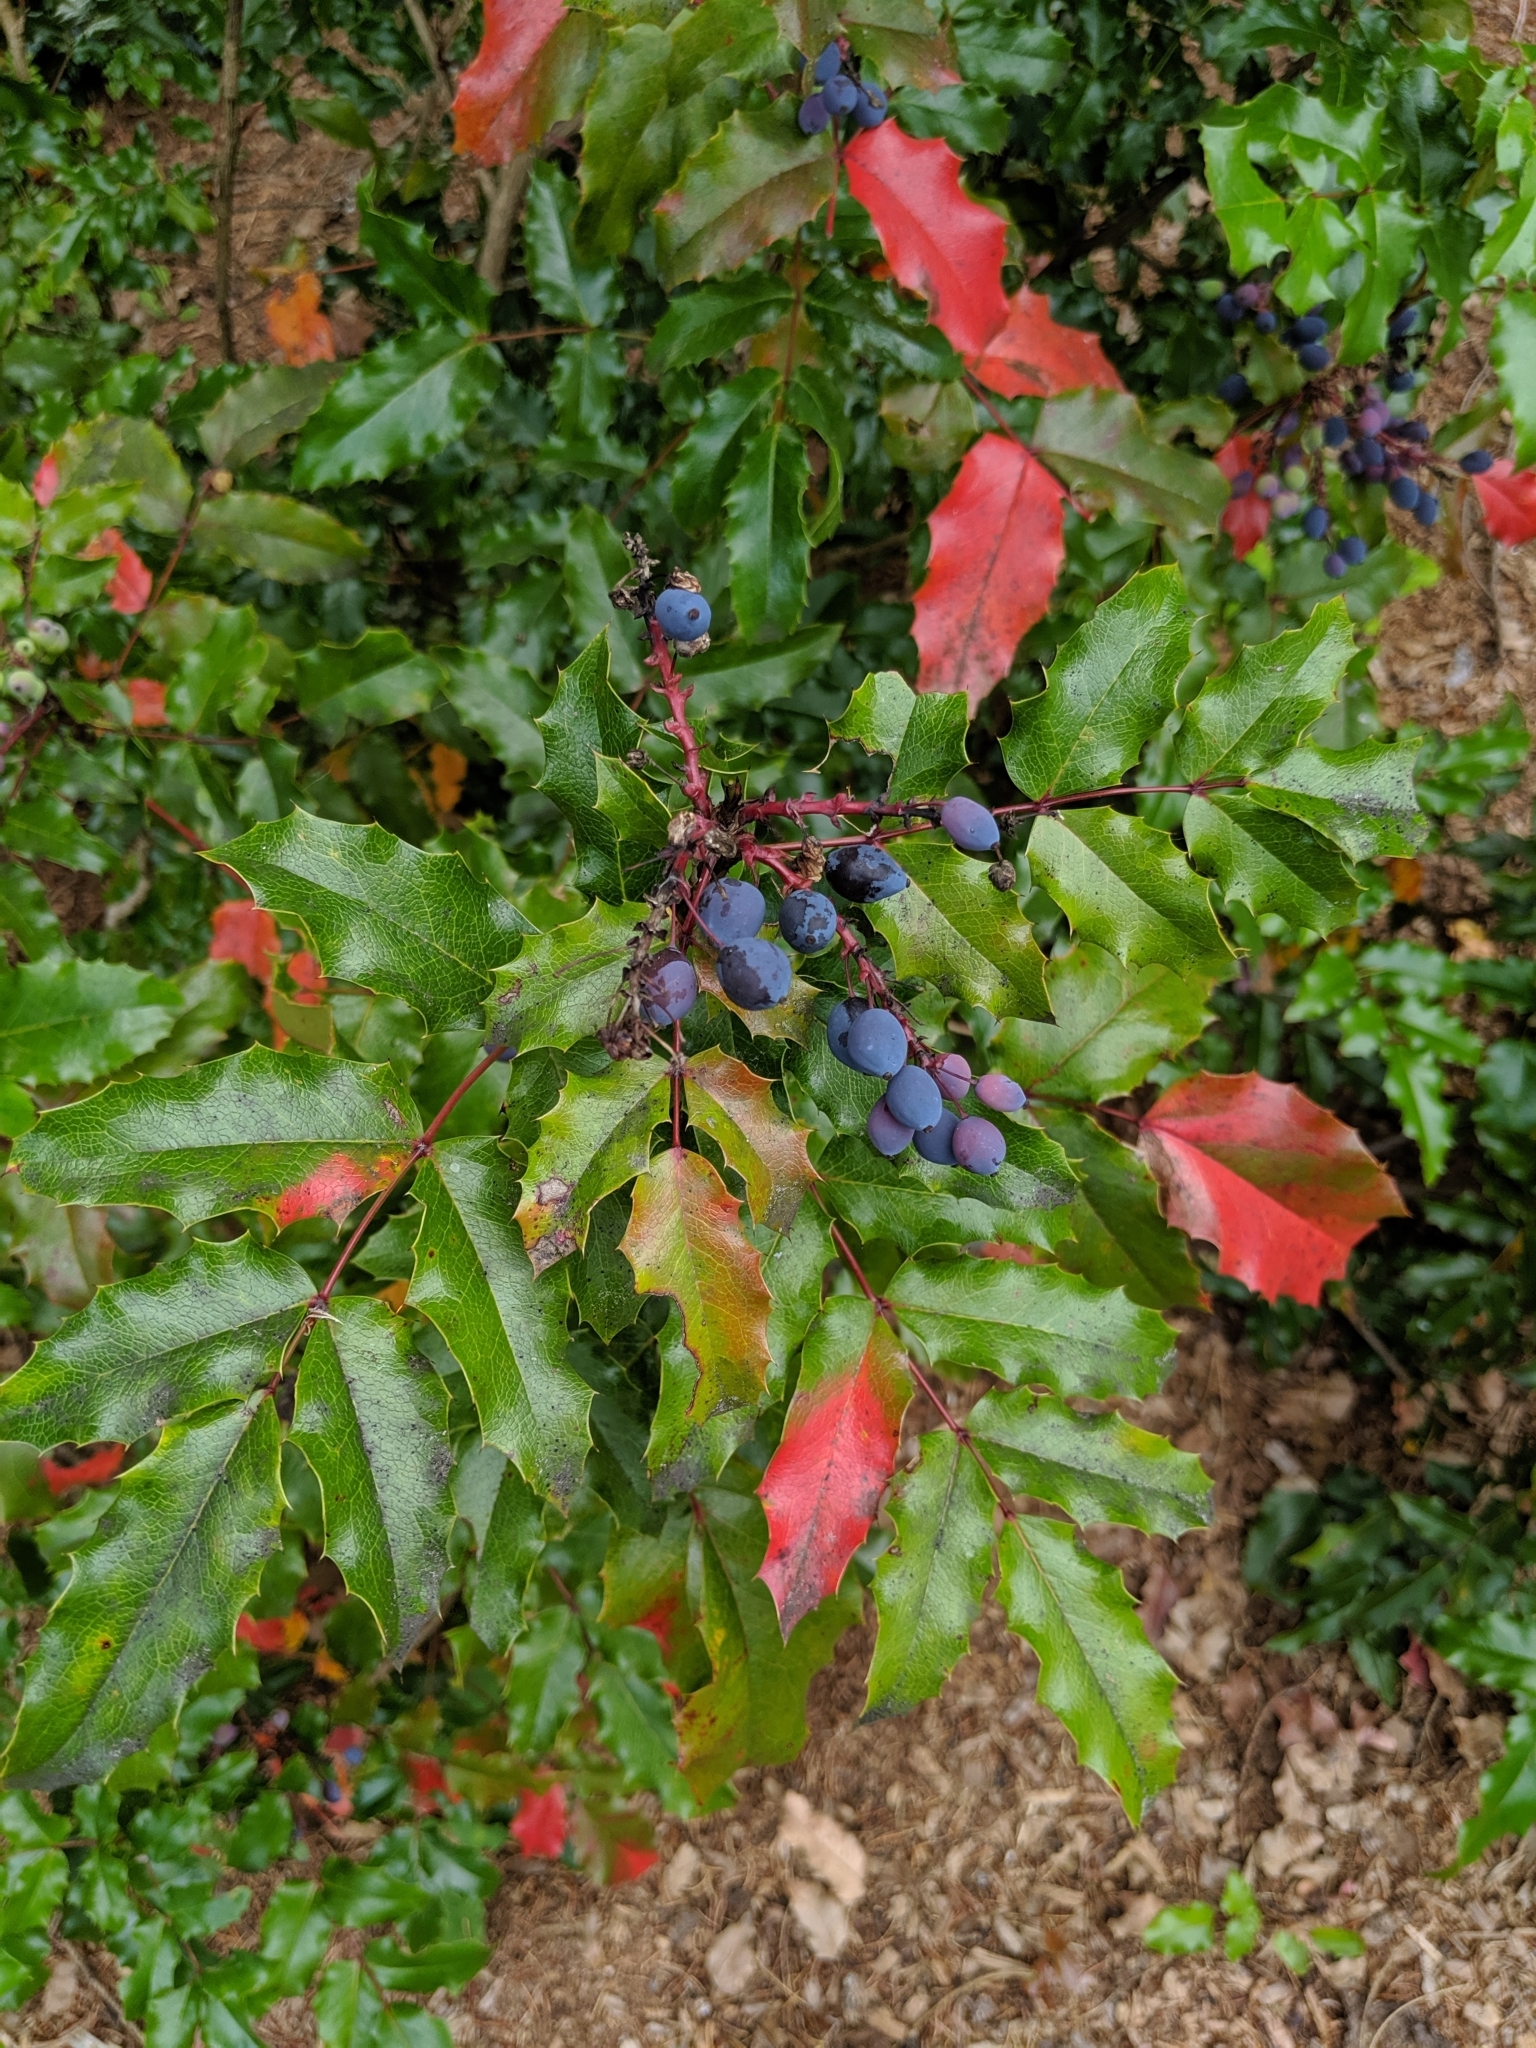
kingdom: Plantae
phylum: Tracheophyta
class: Magnoliopsida
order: Ranunculales
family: Berberidaceae
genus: Mahonia
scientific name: Mahonia aquifolium
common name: Oregon-grape
